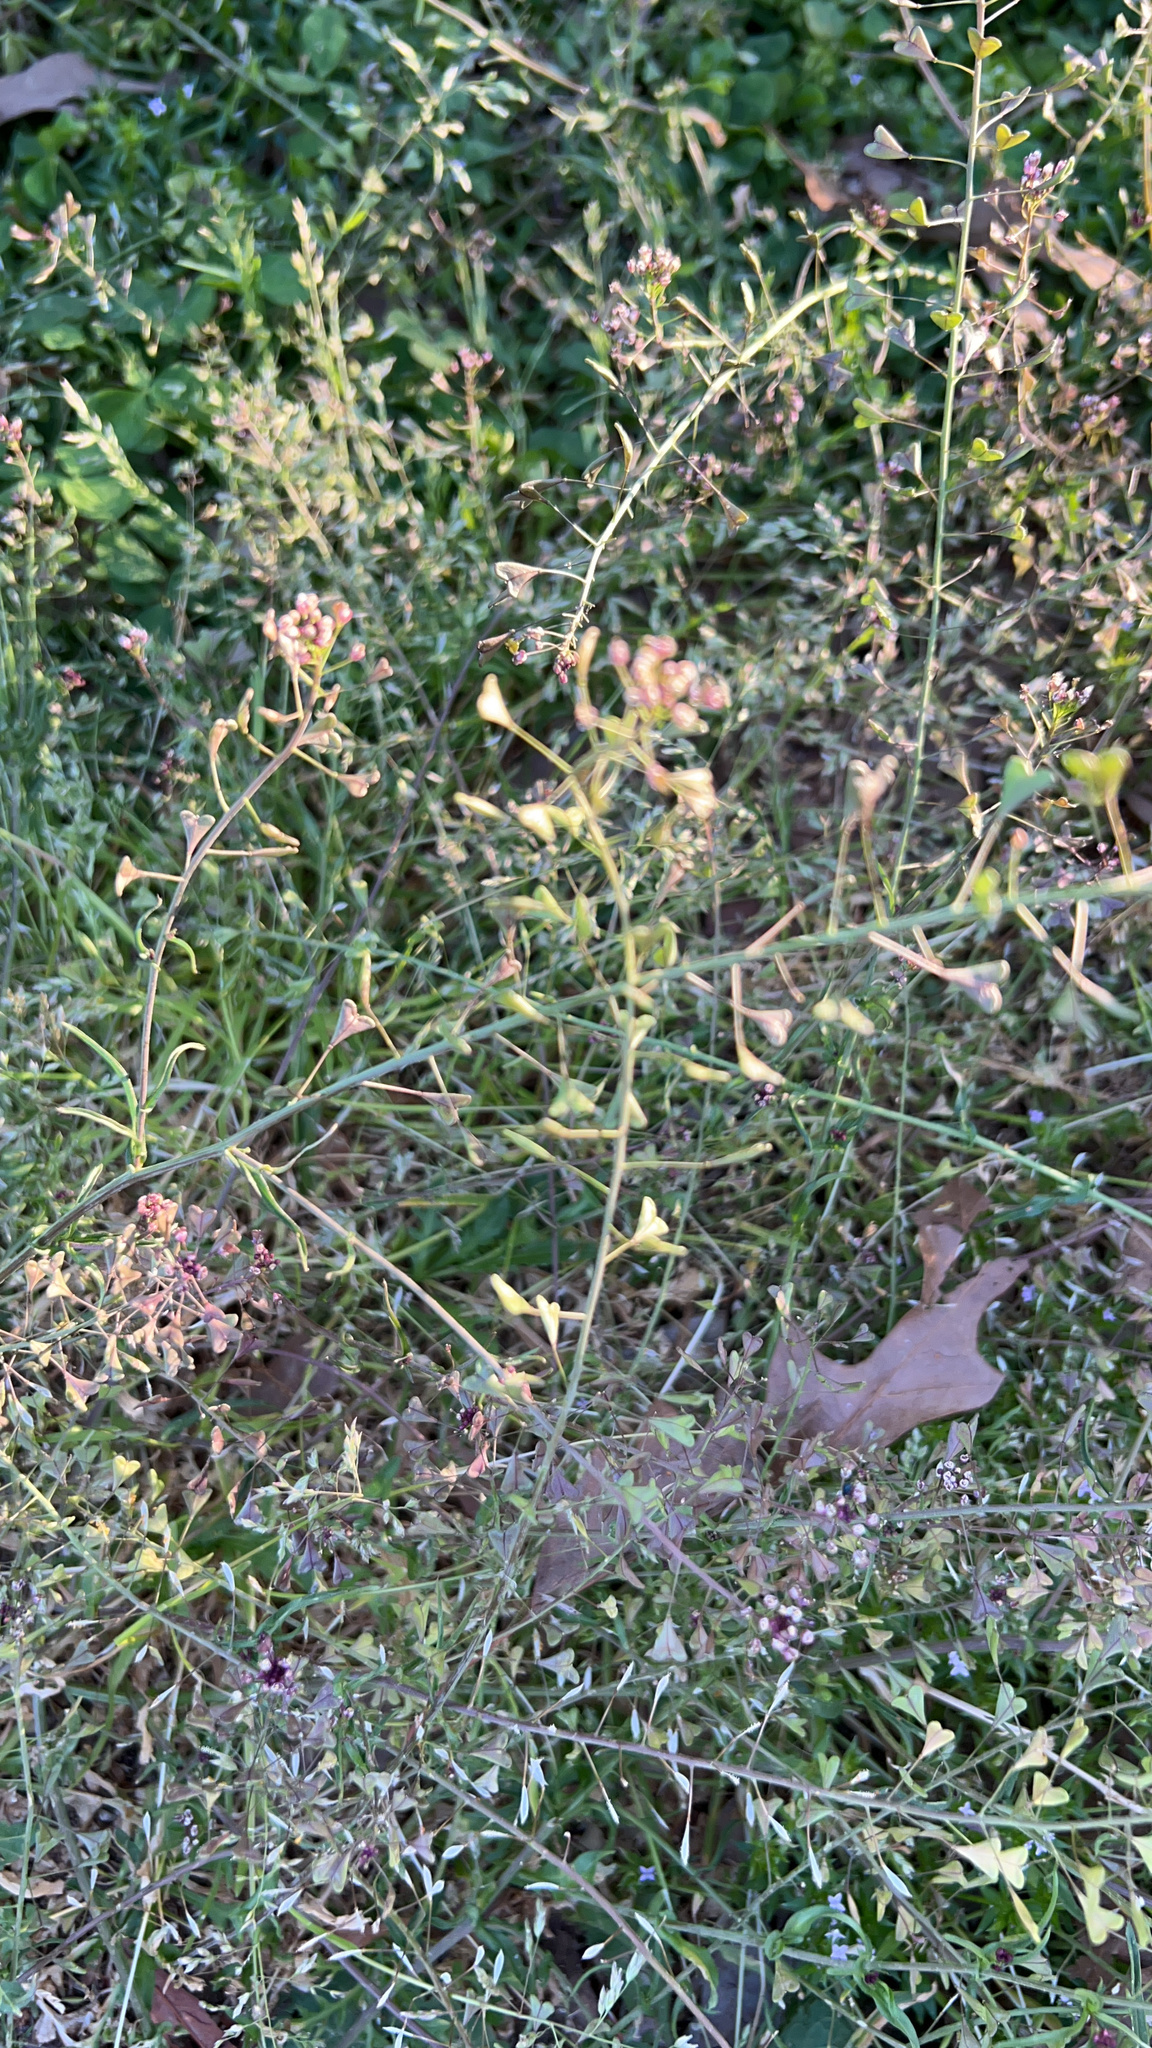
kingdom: Plantae
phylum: Tracheophyta
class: Magnoliopsida
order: Brassicales
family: Brassicaceae
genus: Capsella
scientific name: Capsella bursa-pastoris
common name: Shepherd's purse
